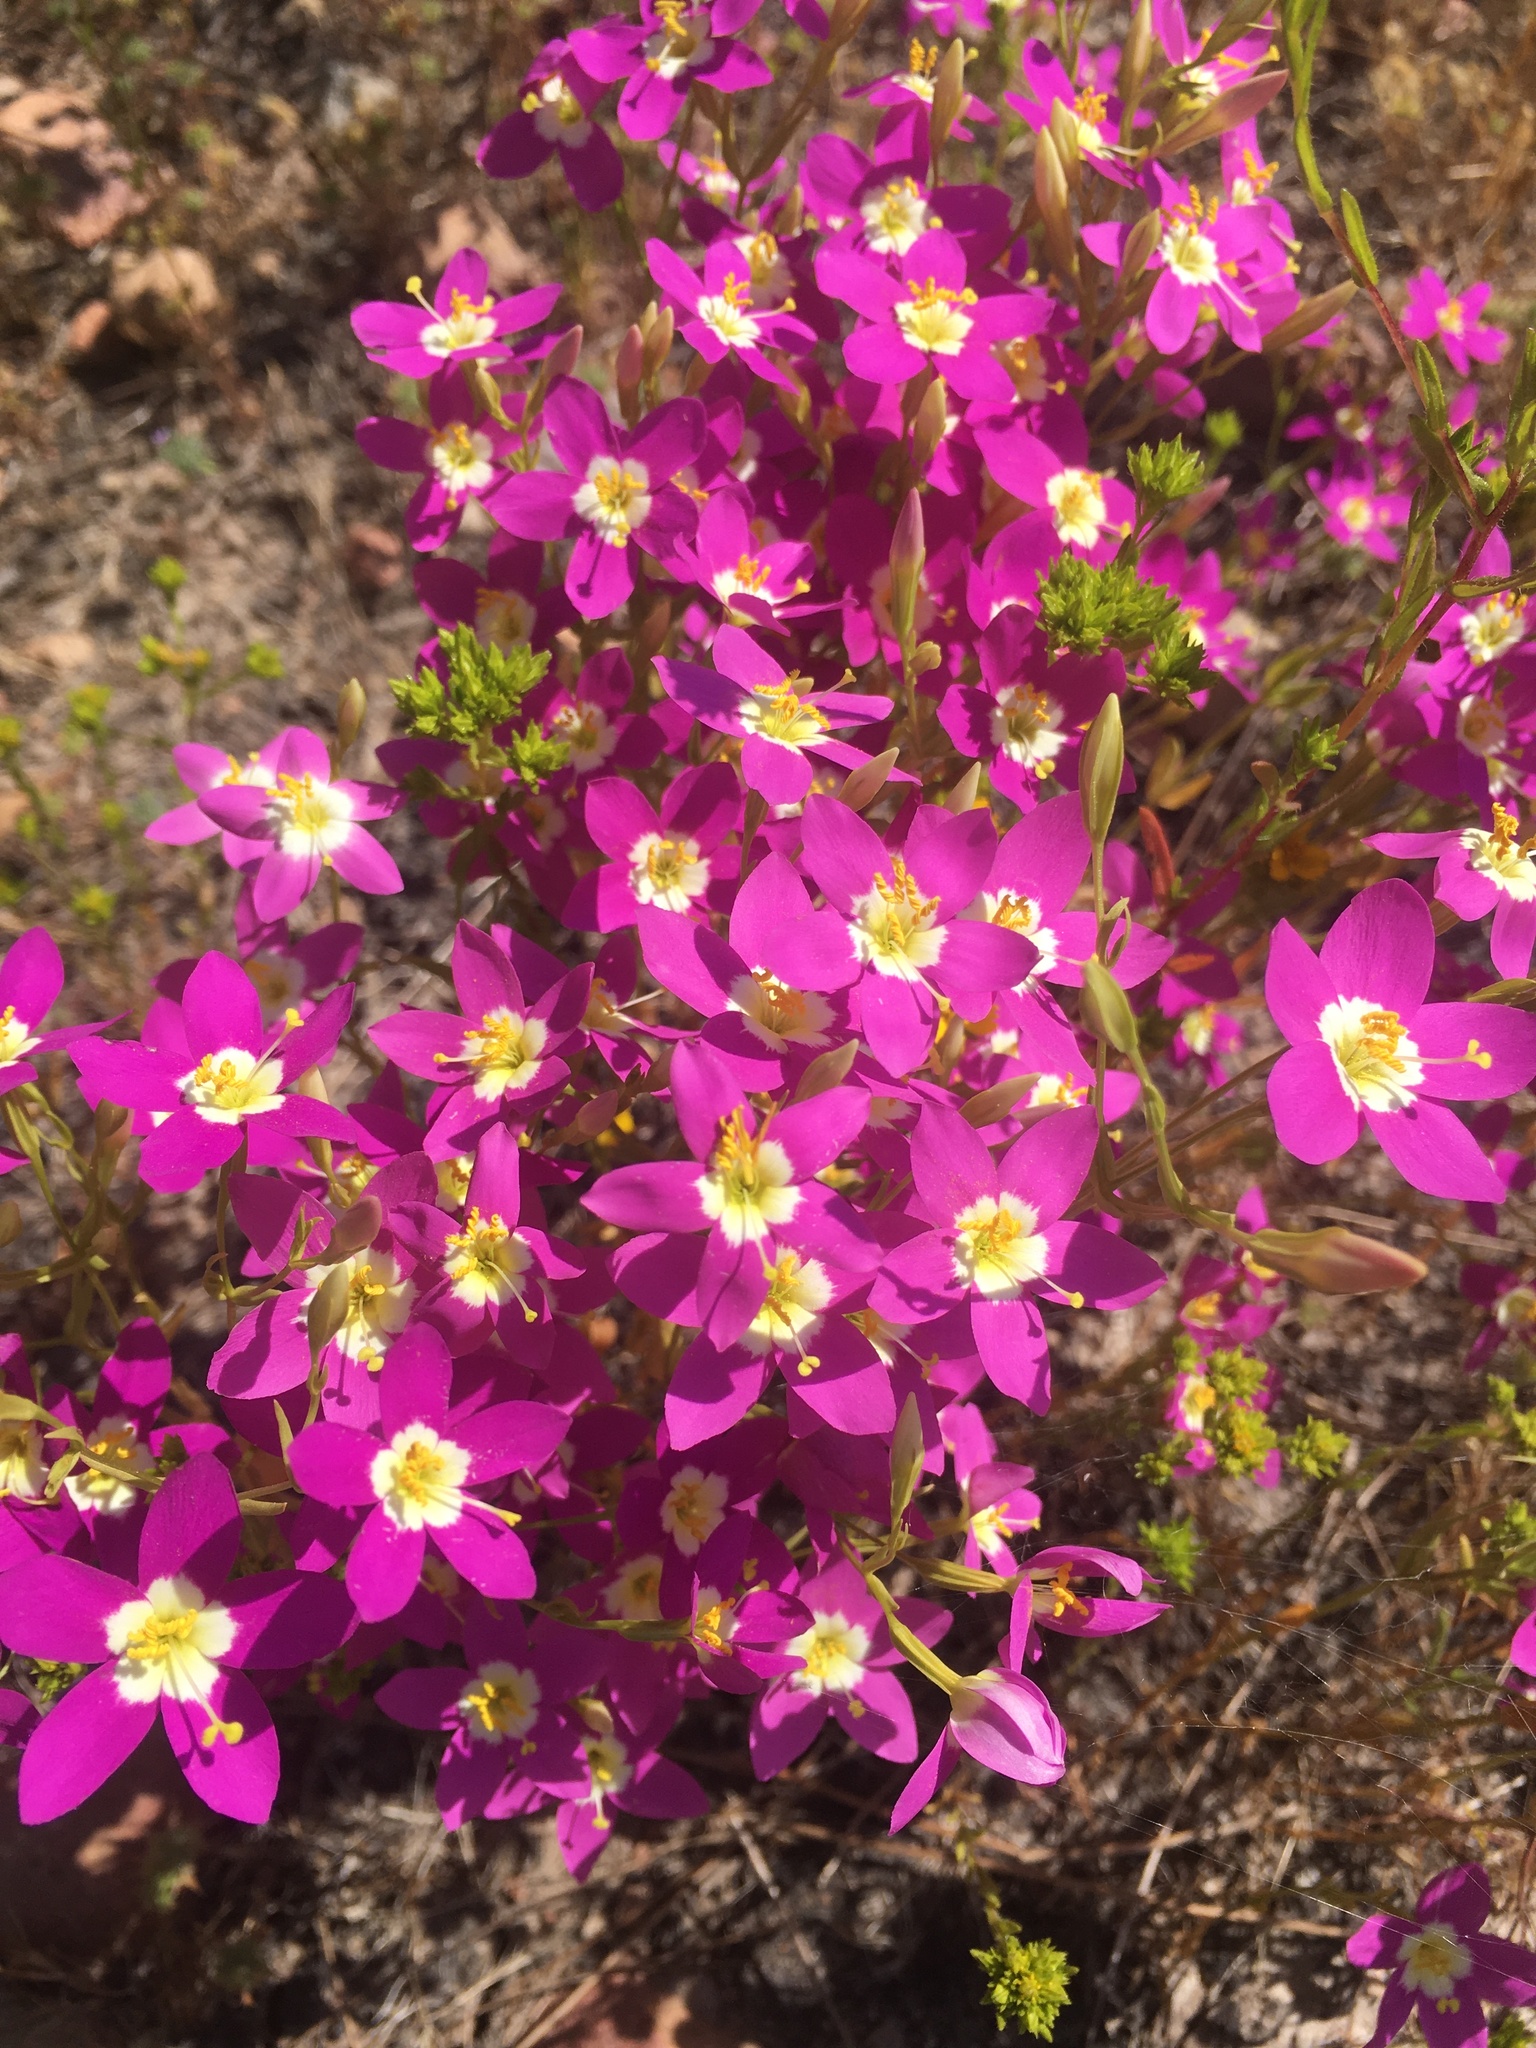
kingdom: Plantae
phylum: Tracheophyta
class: Magnoliopsida
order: Gentianales
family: Gentianaceae
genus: Zeltnera
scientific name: Zeltnera venusta
